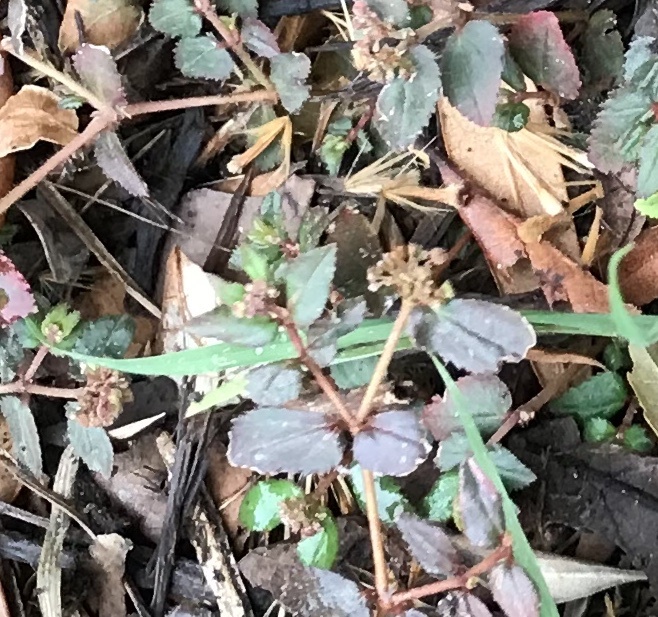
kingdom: Plantae
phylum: Tracheophyta
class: Magnoliopsida
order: Malpighiales
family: Euphorbiaceae
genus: Euphorbia
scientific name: Euphorbia ophthalmica
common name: Florida hammock sandmat
